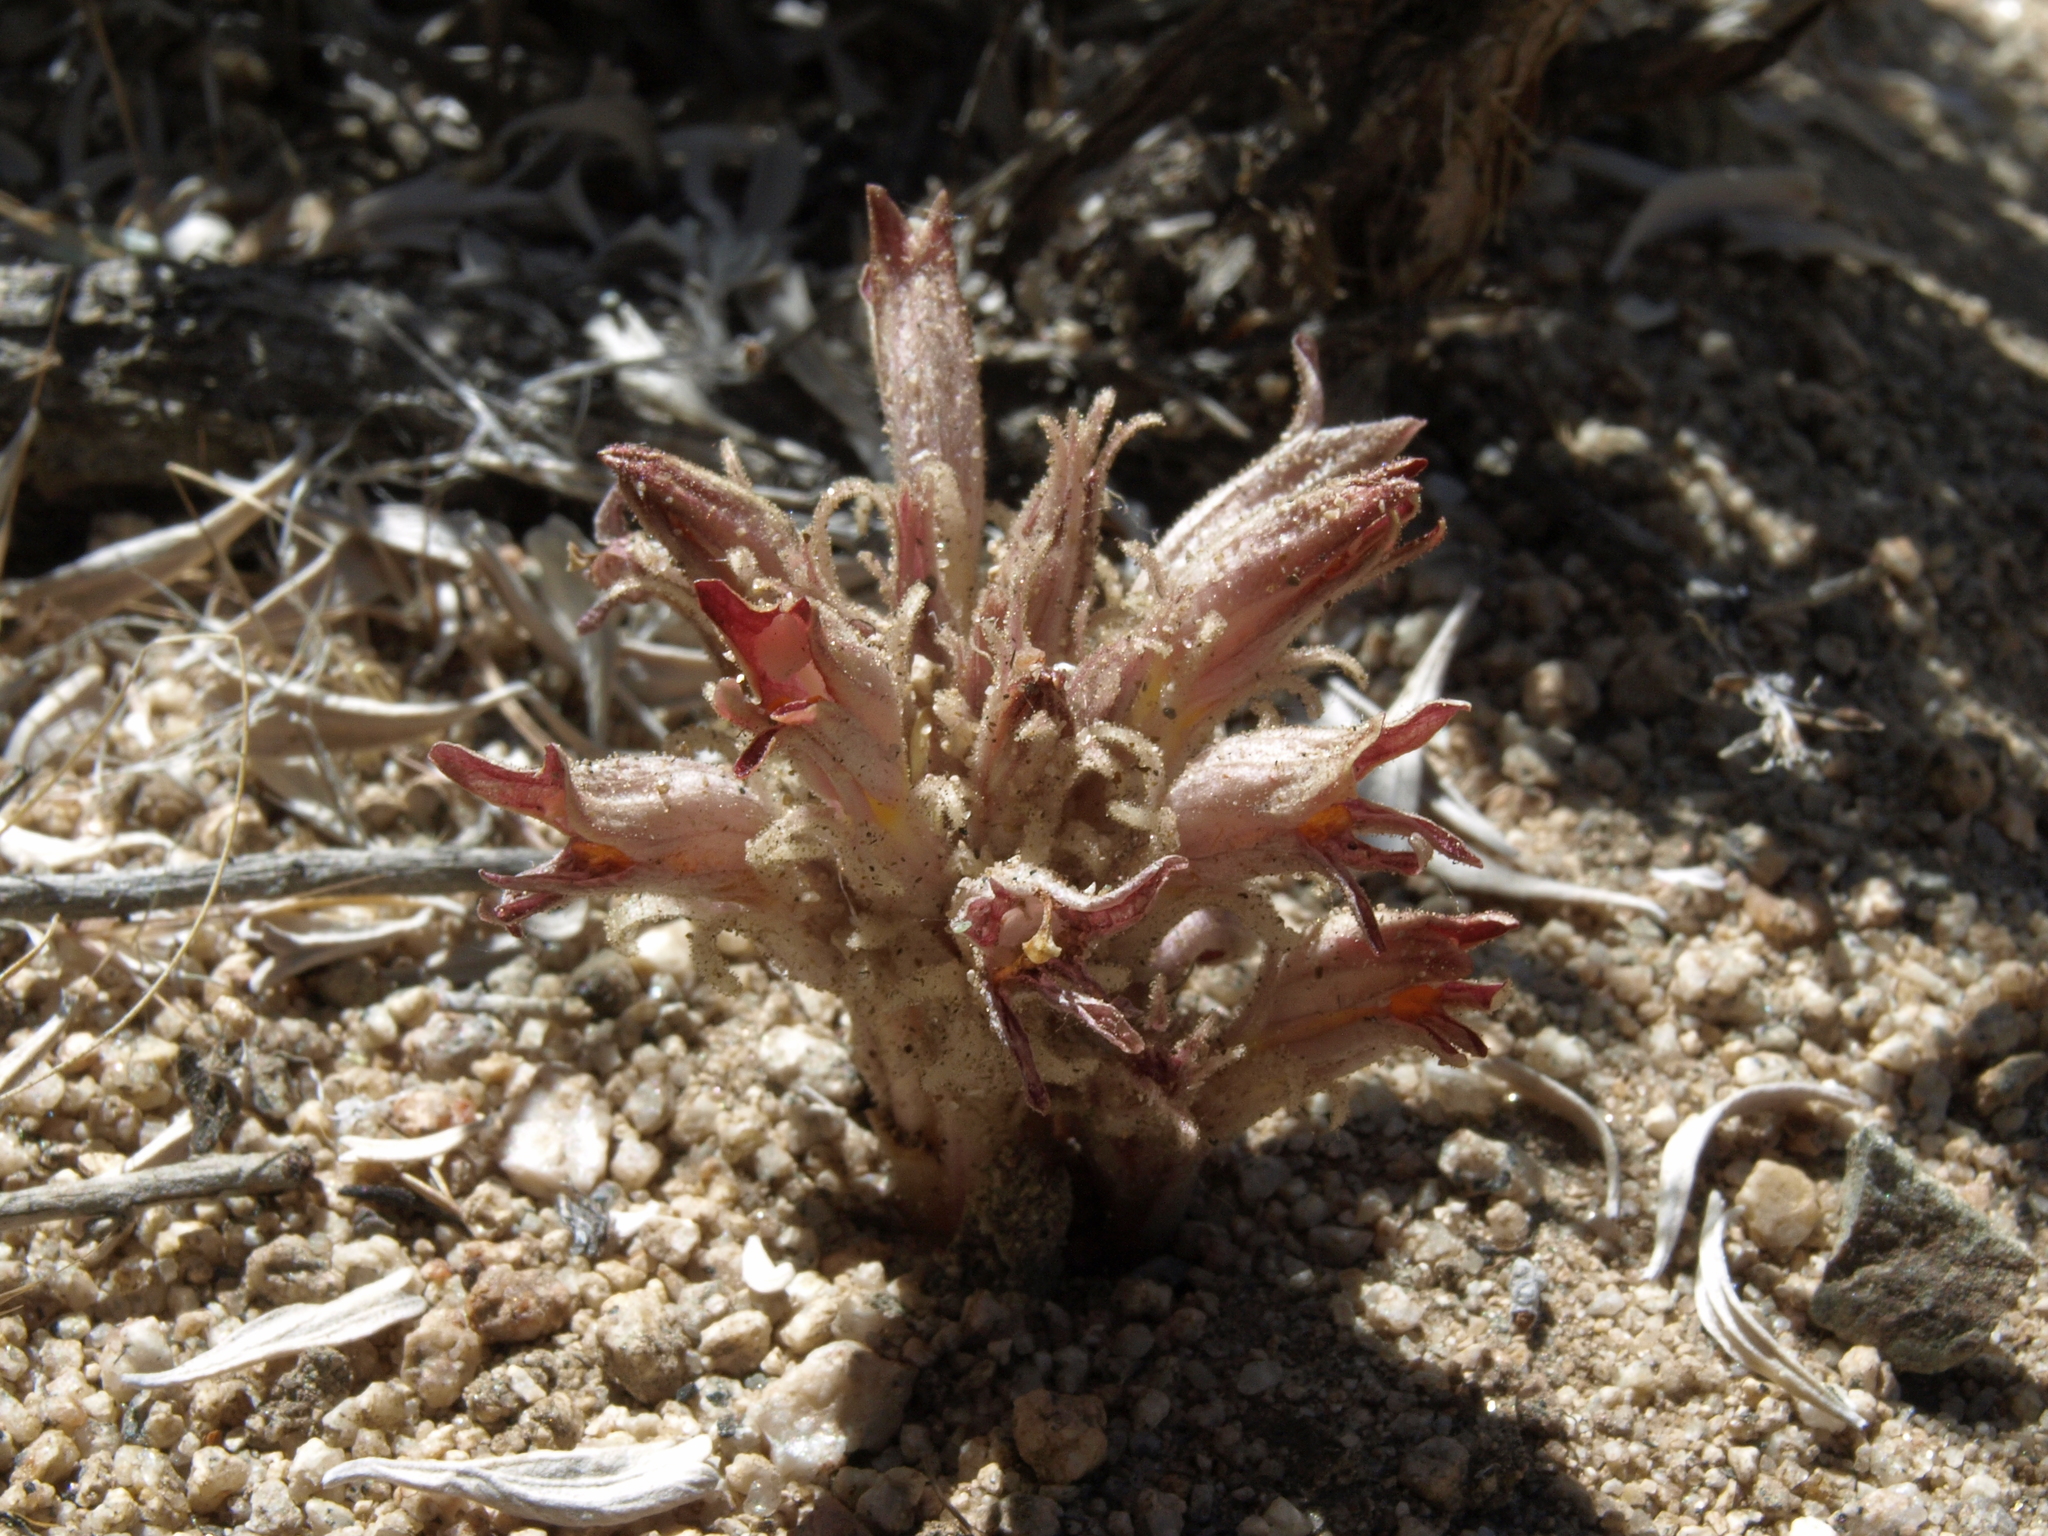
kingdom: Plantae
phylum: Tracheophyta
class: Magnoliopsida
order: Lamiales
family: Orobanchaceae
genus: Aphyllon
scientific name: Aphyllon corymbosum
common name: Flat-top broomrape
